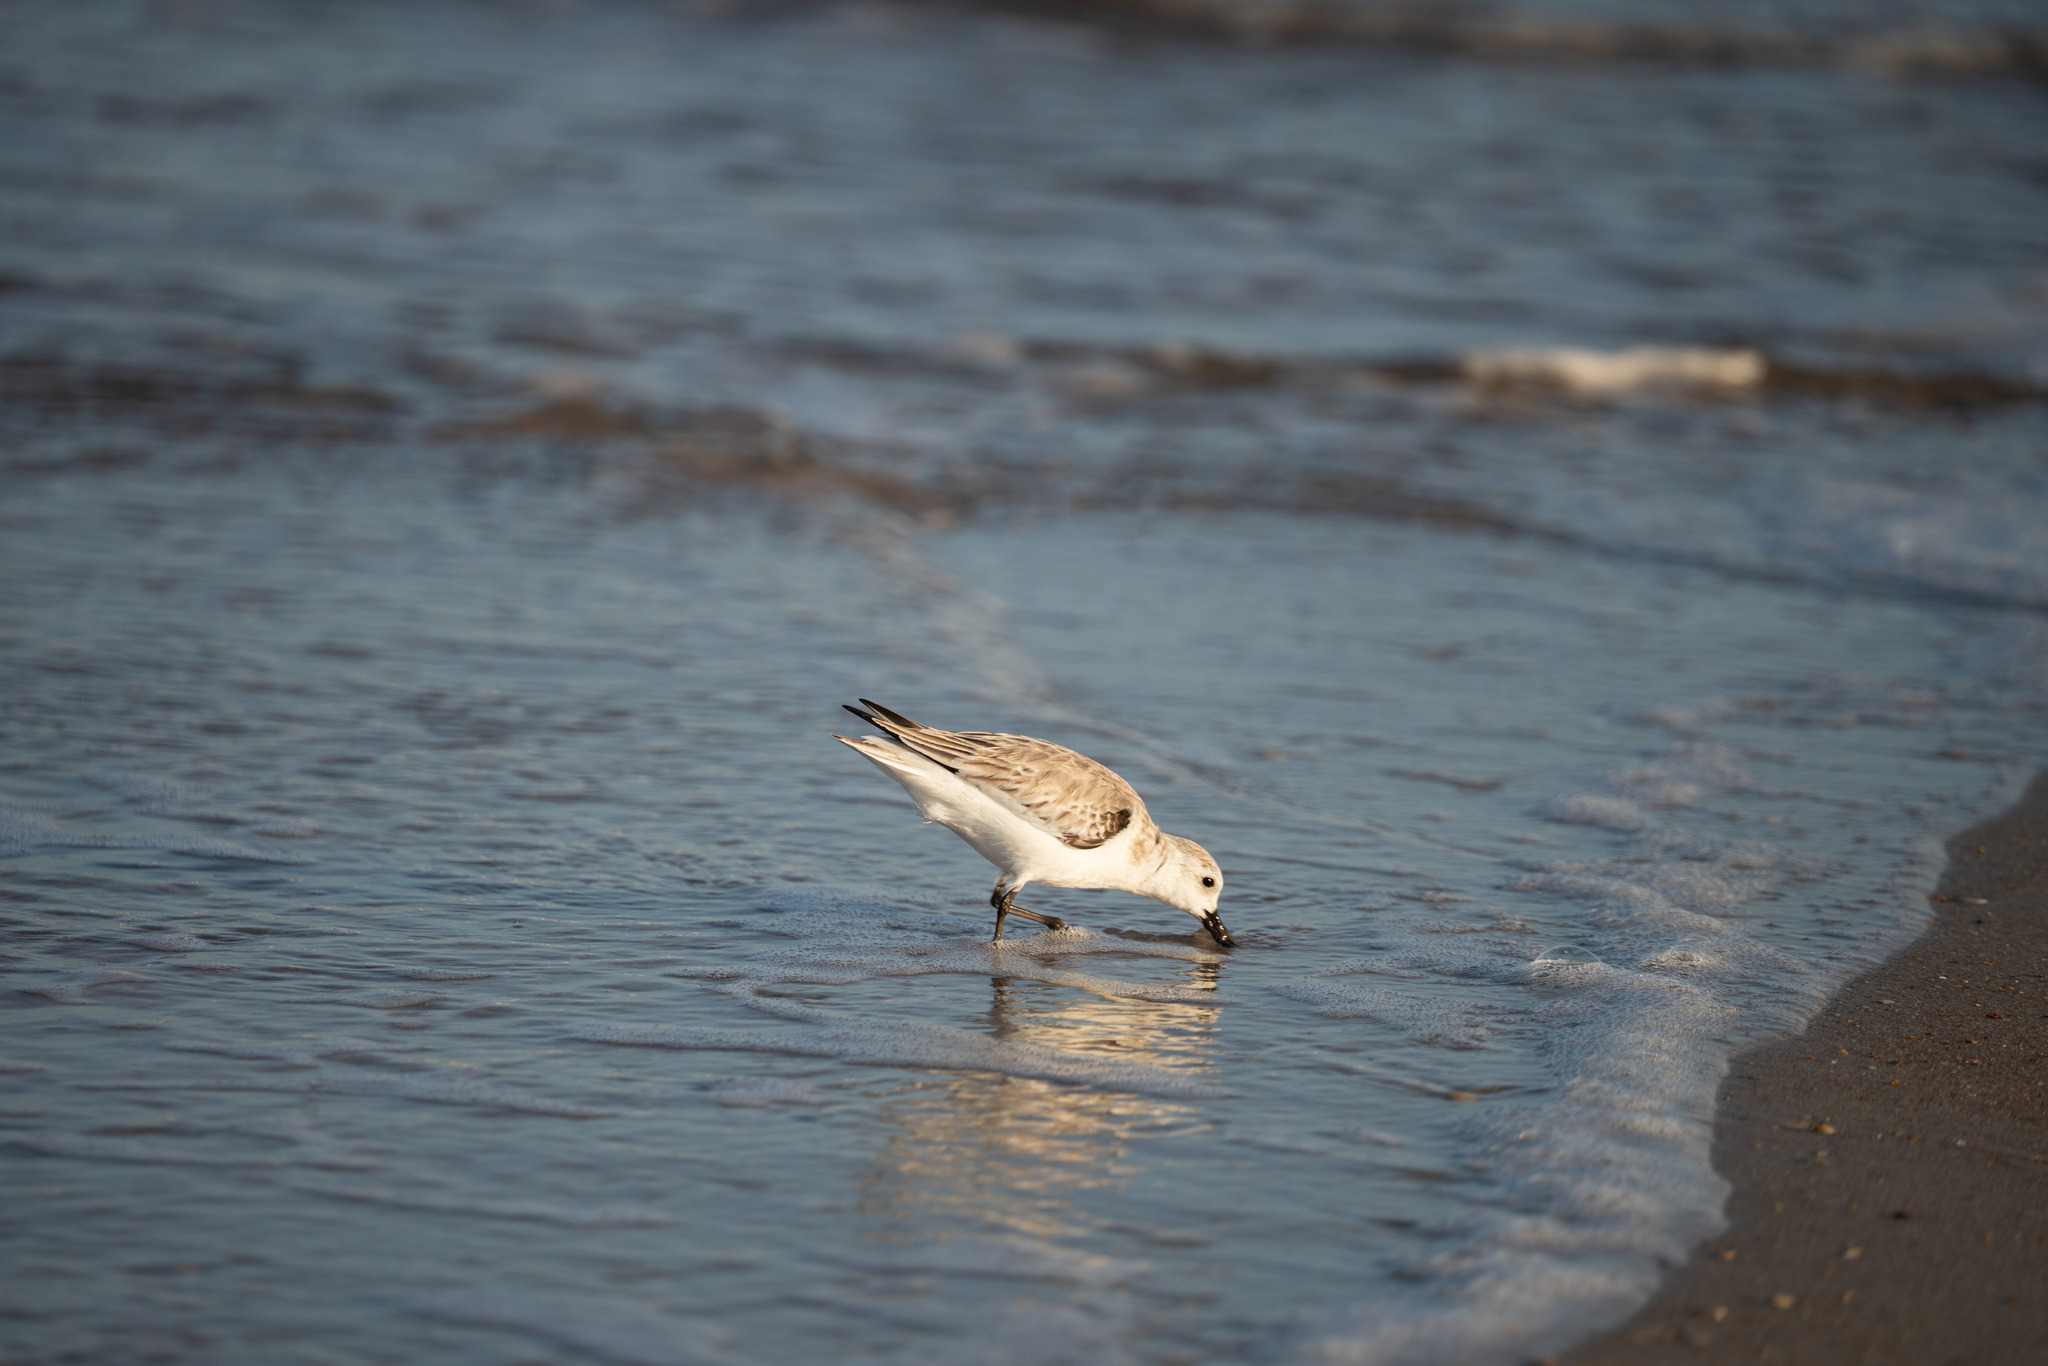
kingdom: Animalia
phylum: Chordata
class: Aves
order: Charadriiformes
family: Scolopacidae
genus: Calidris
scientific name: Calidris alba
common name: Sanderling
